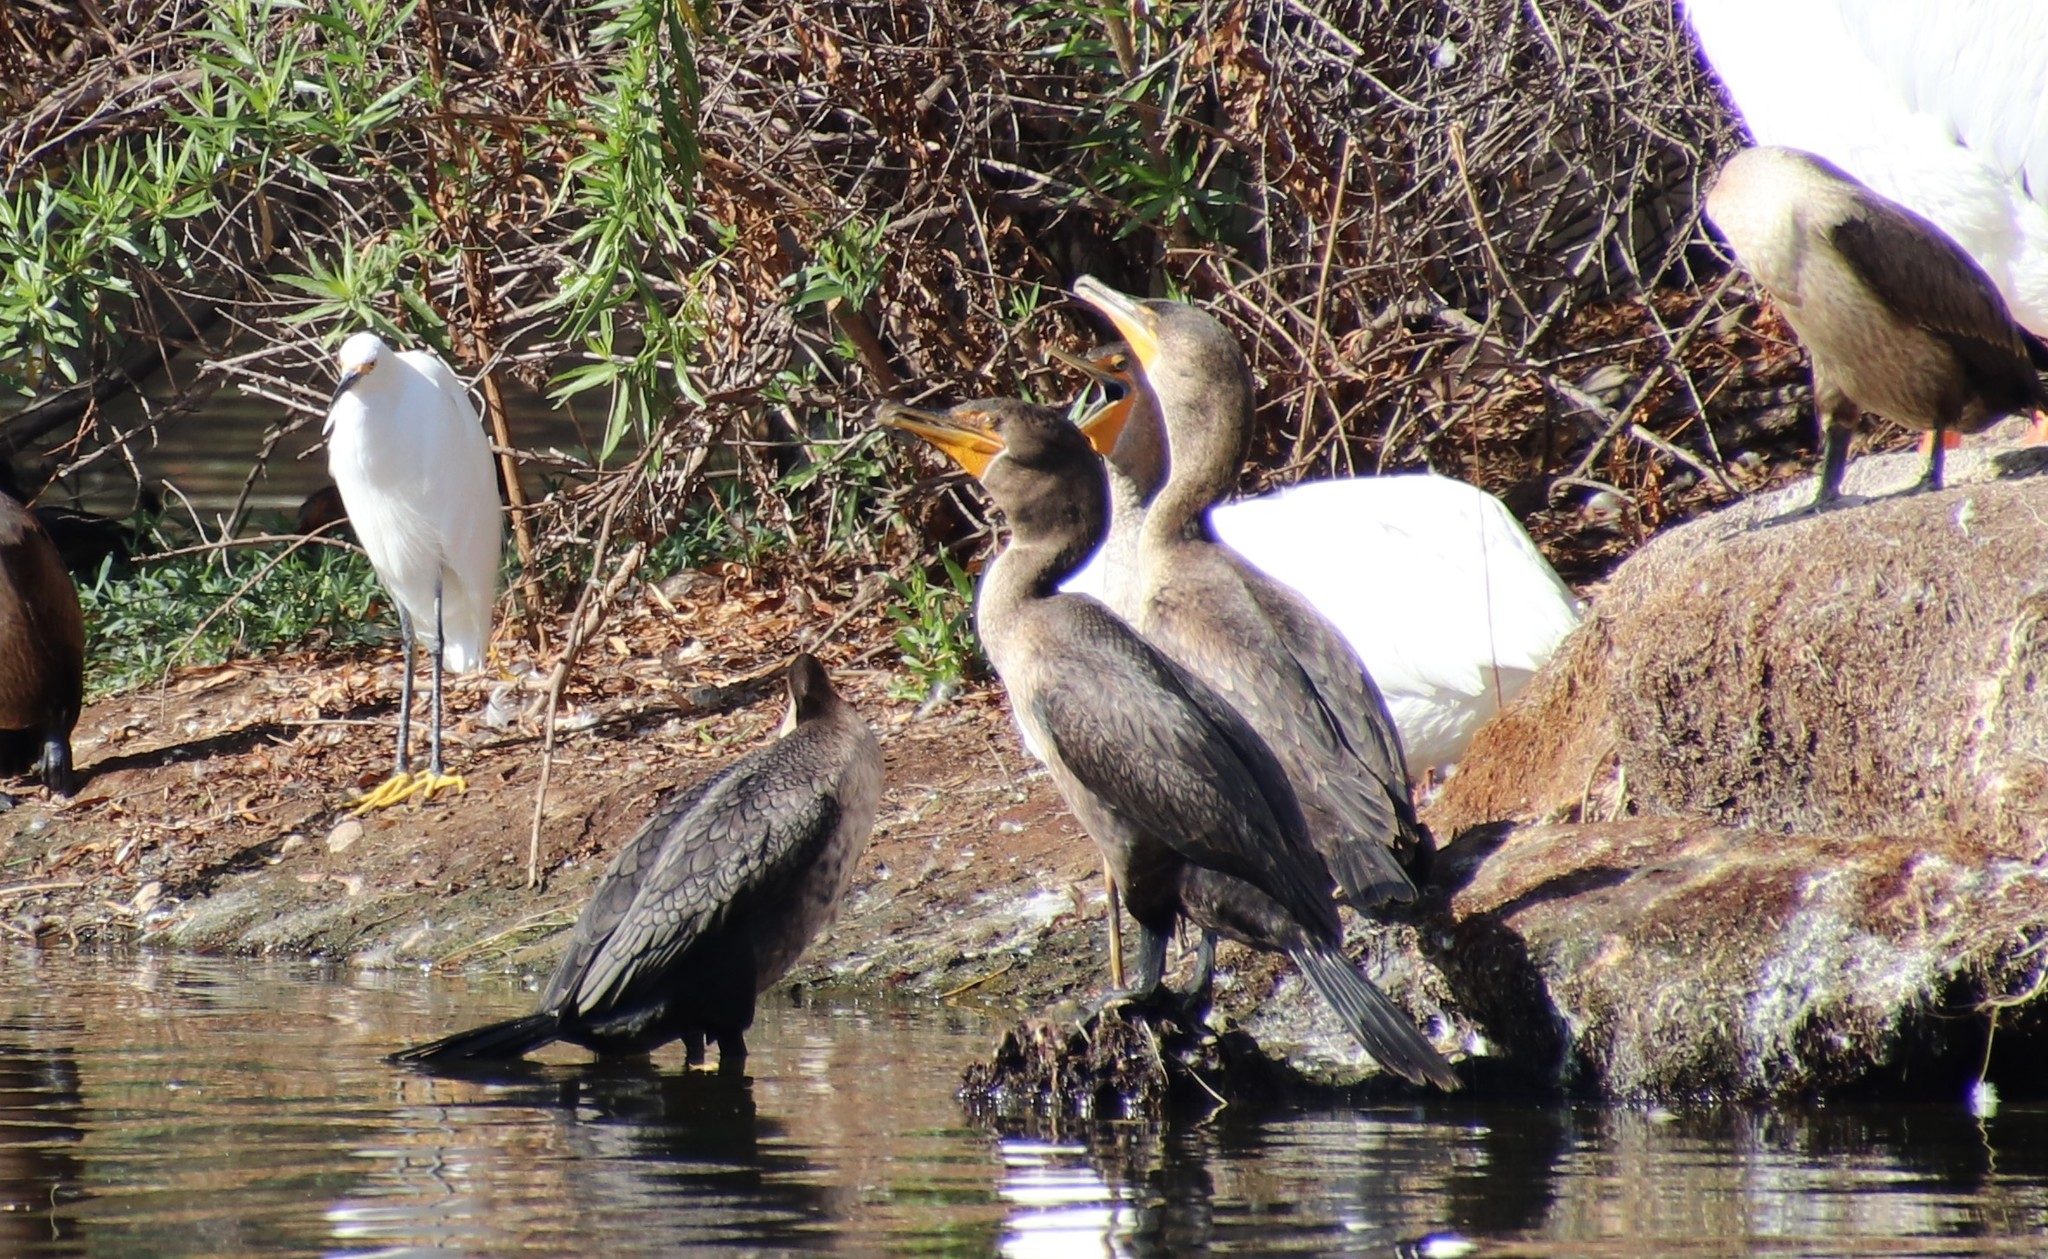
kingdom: Animalia
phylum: Chordata
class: Aves
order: Suliformes
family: Phalacrocoracidae
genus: Phalacrocorax
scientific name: Phalacrocorax auritus
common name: Double-crested cormorant
